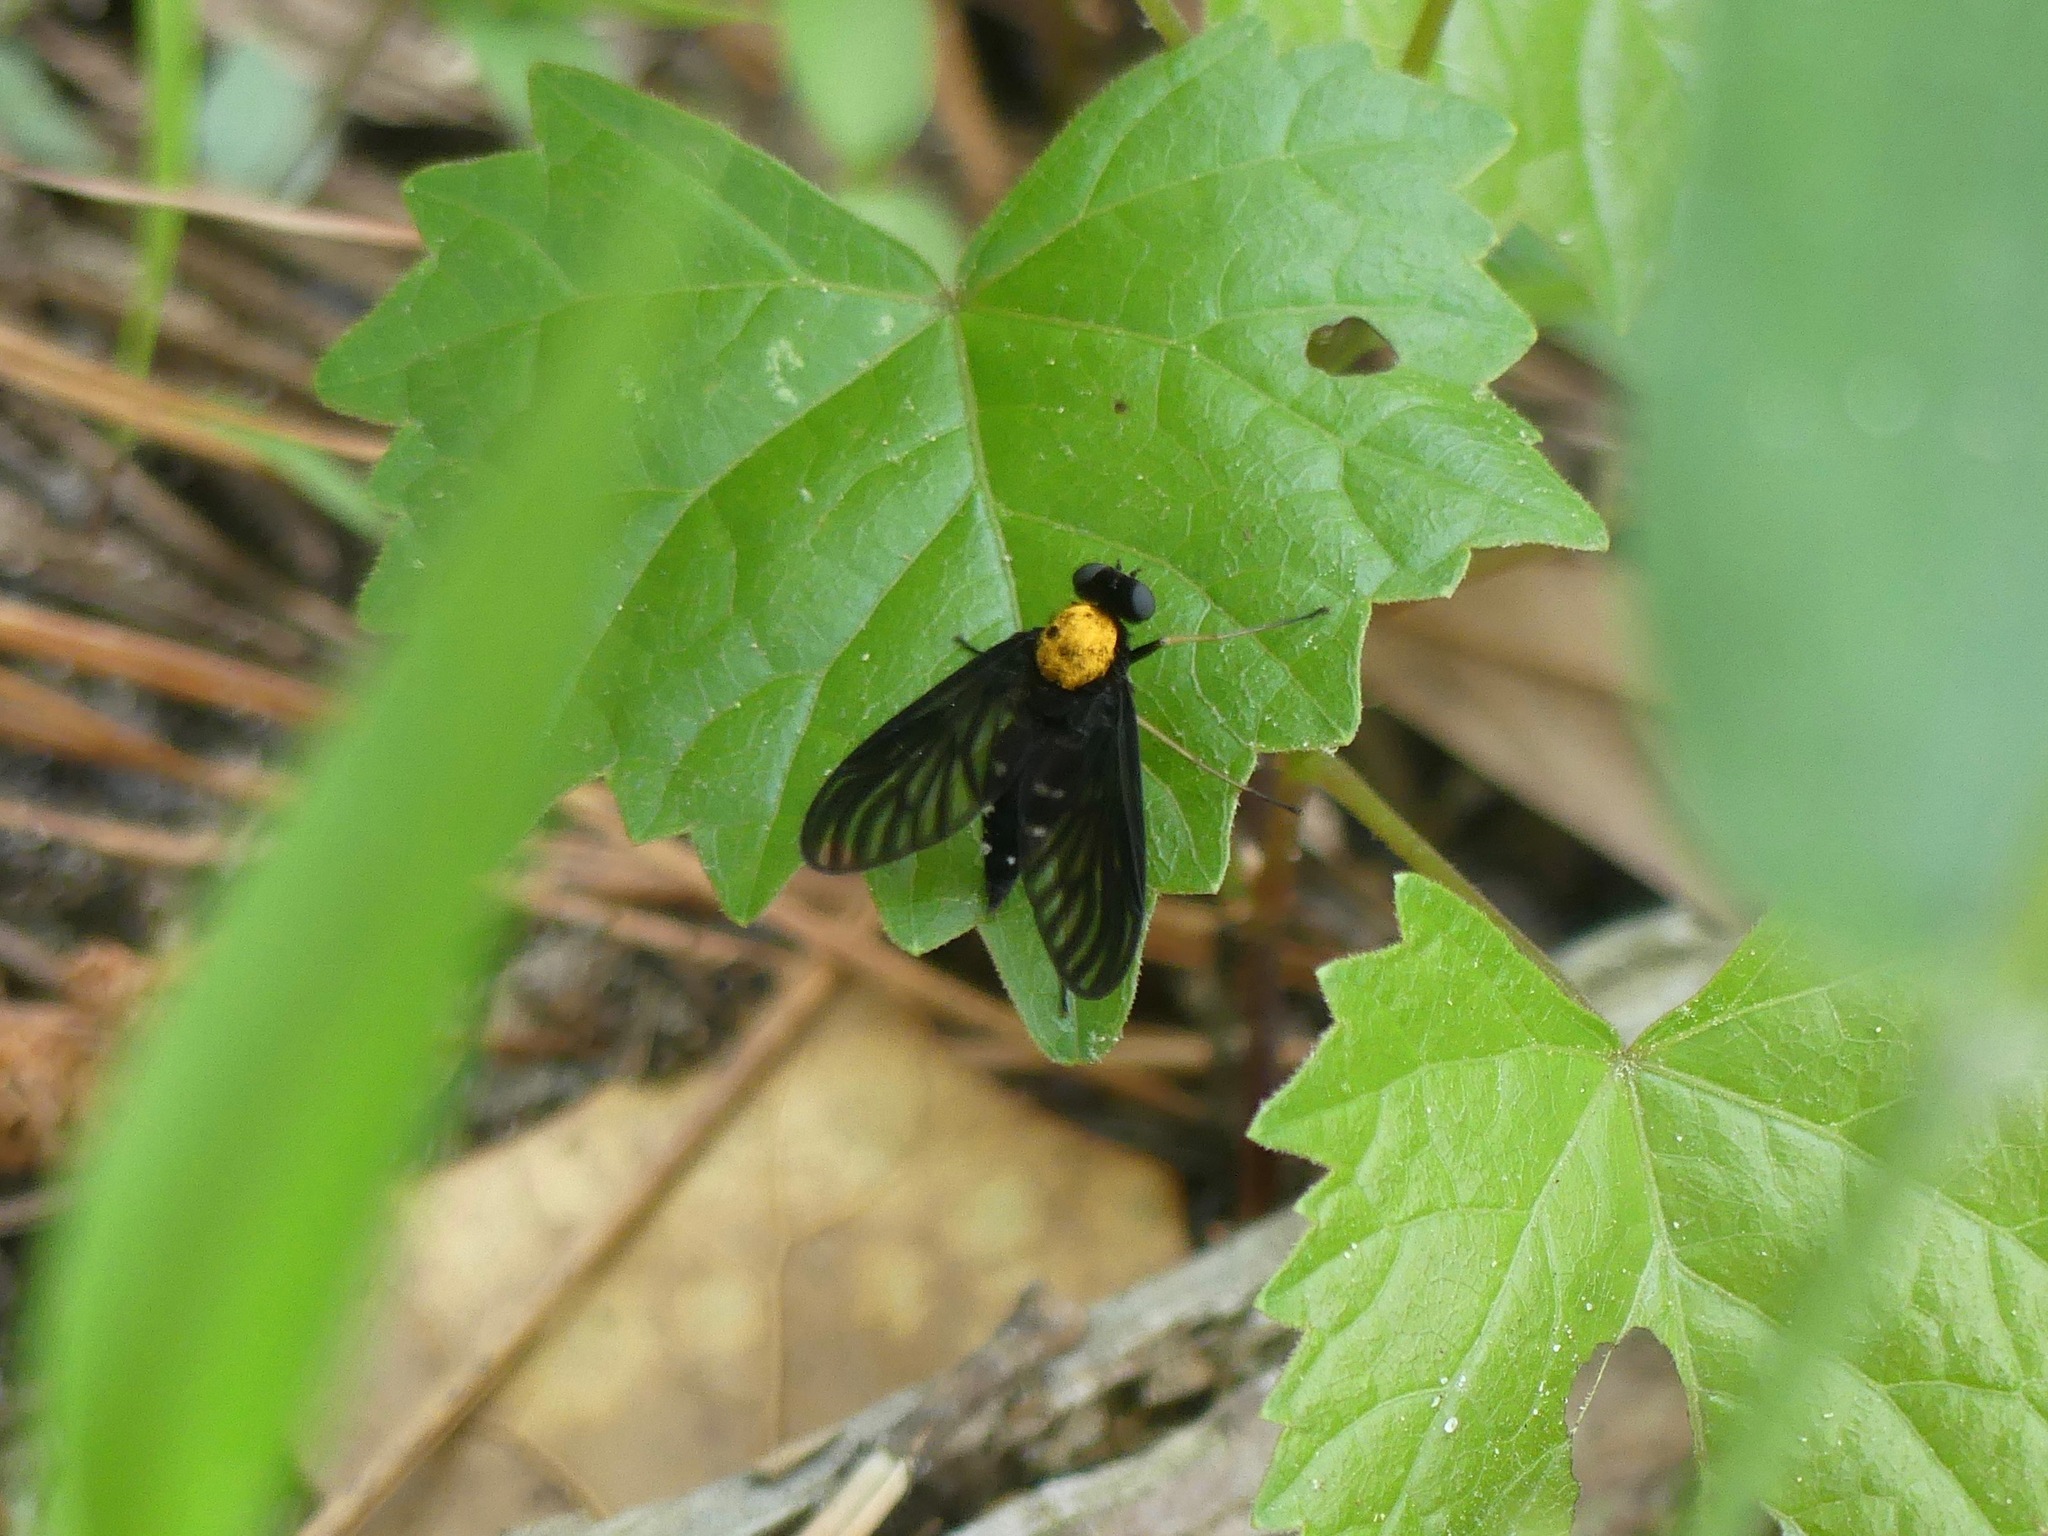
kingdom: Animalia
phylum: Arthropoda
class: Insecta
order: Diptera
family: Rhagionidae
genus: Chrysopilus
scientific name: Chrysopilus thoracicus
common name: Golden-backed snipe fly
